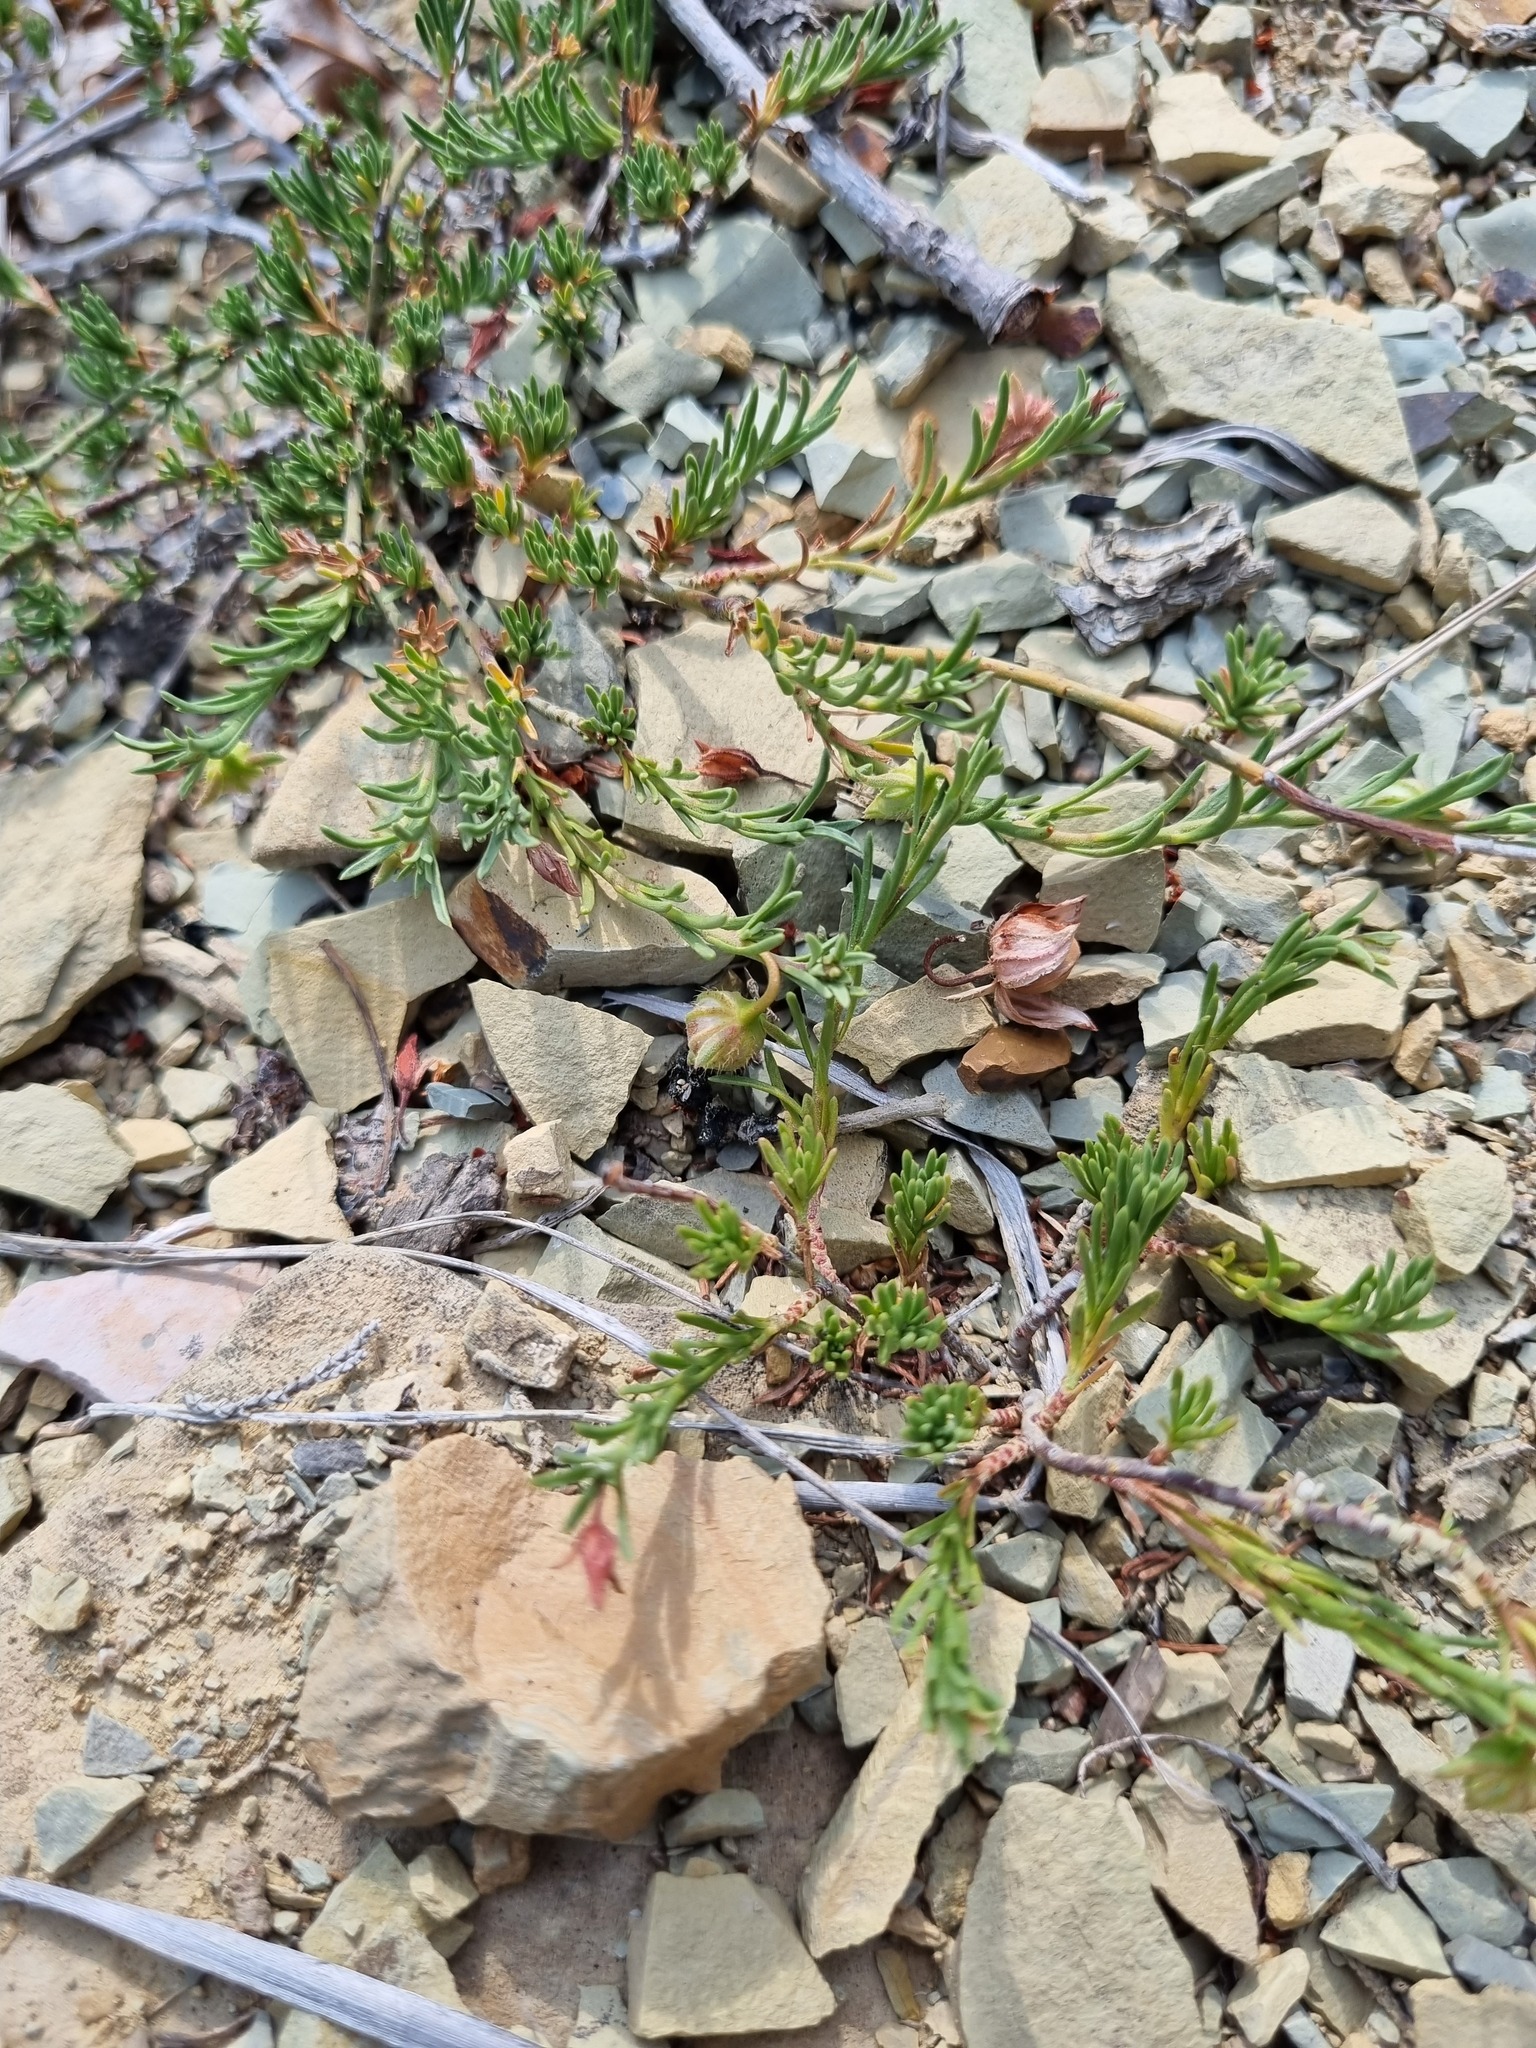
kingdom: Plantae
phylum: Tracheophyta
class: Magnoliopsida
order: Malvales
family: Cistaceae
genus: Fumana
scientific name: Fumana procumbens
